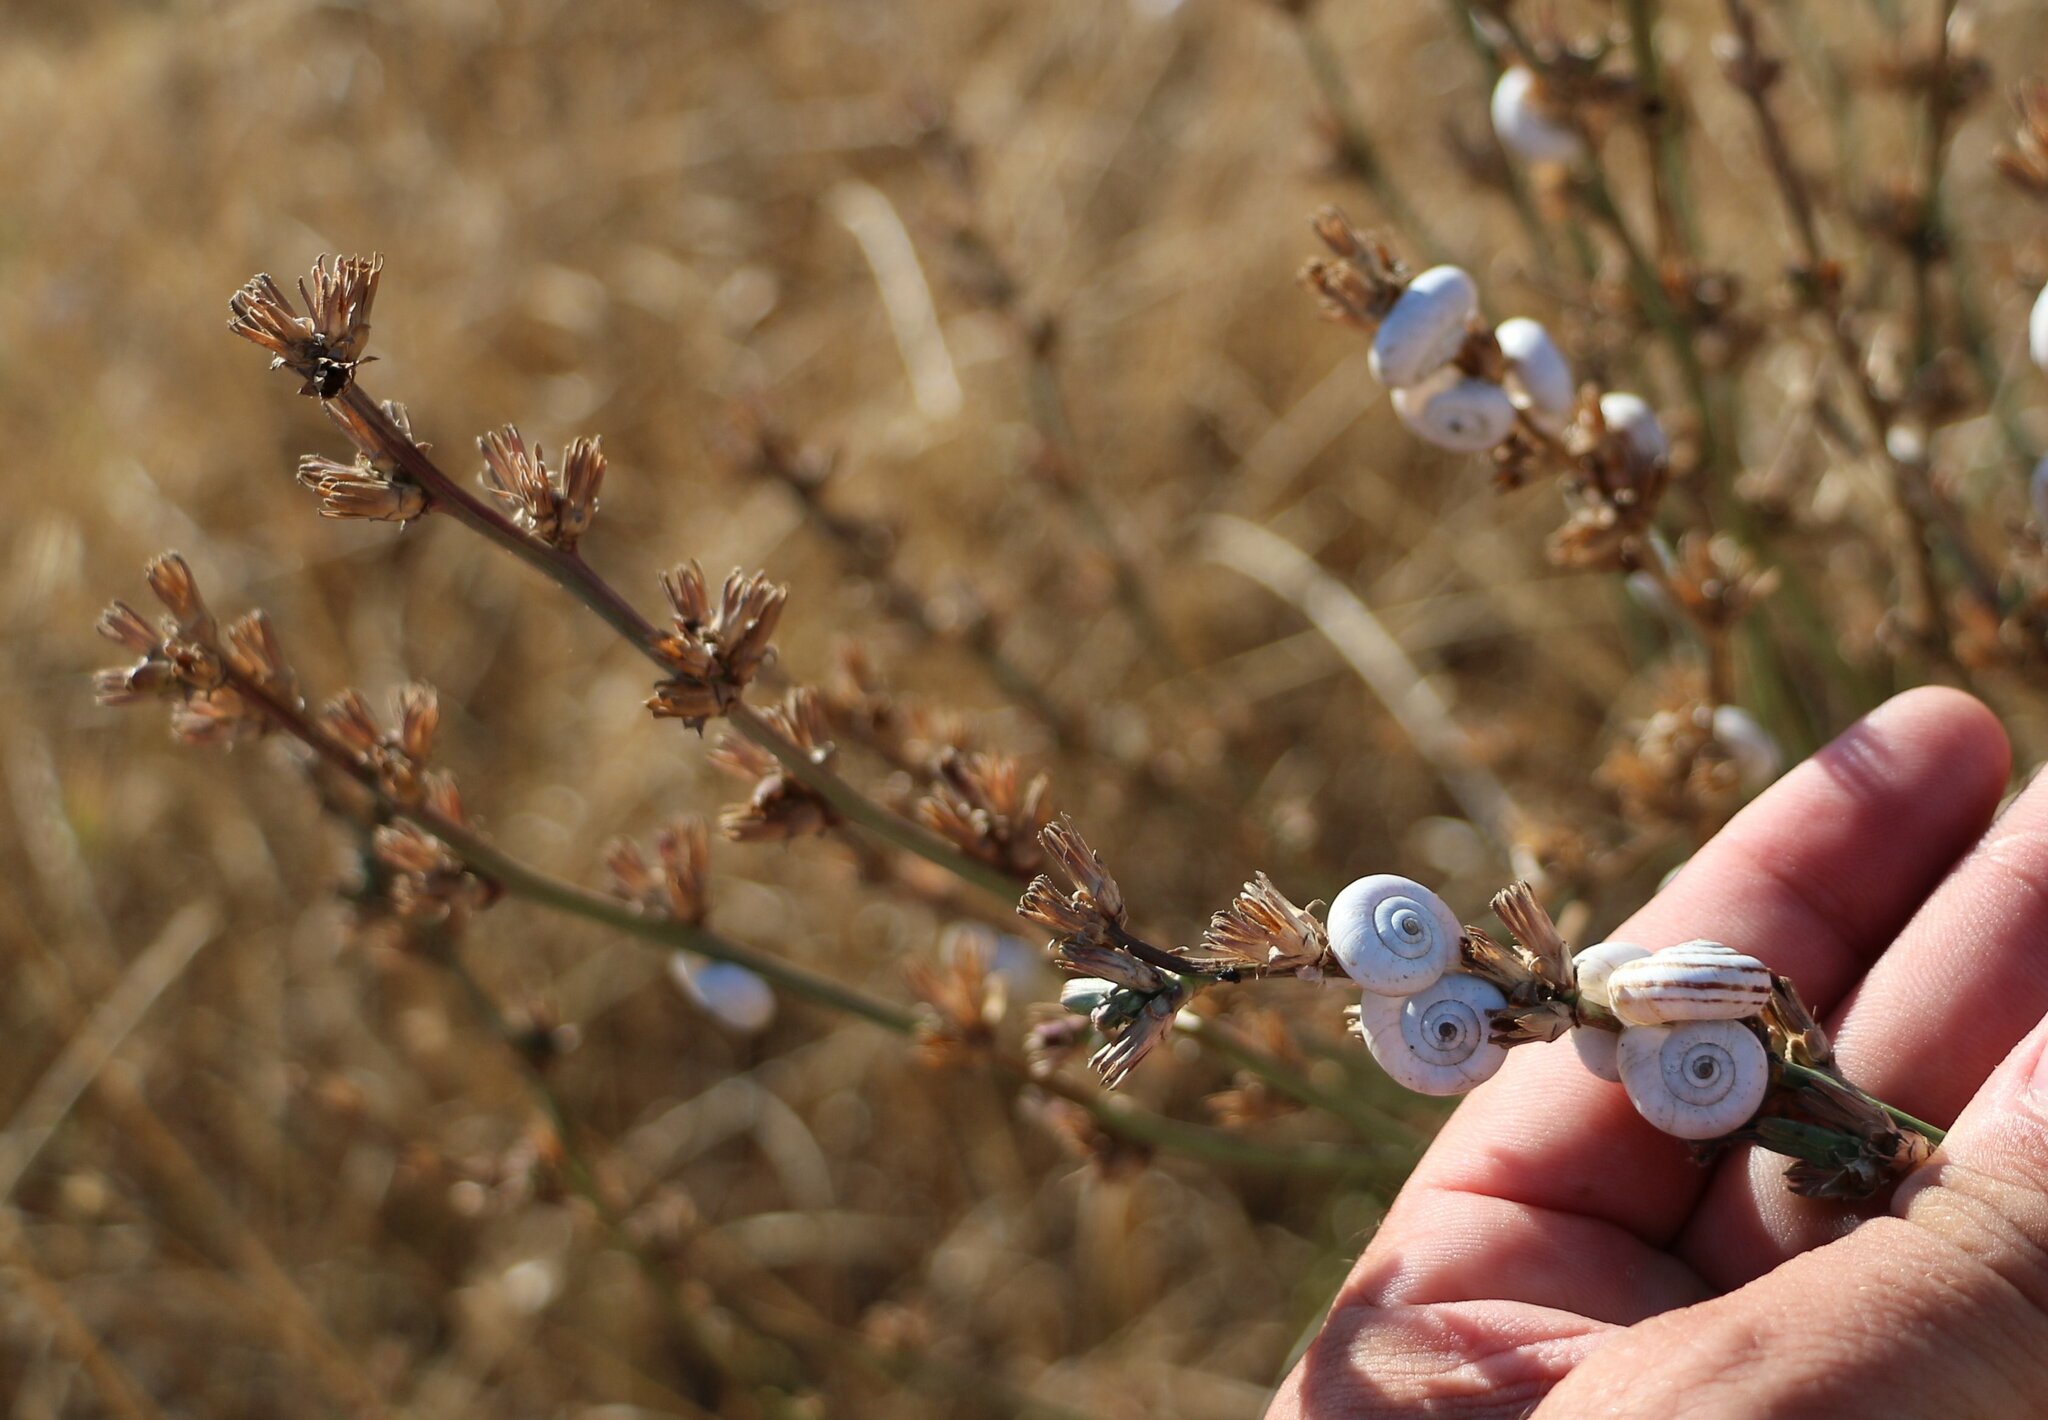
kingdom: Plantae
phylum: Tracheophyta
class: Magnoliopsida
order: Asterales
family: Asteraceae
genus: Cichorium
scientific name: Cichorium intybus
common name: Chicory
